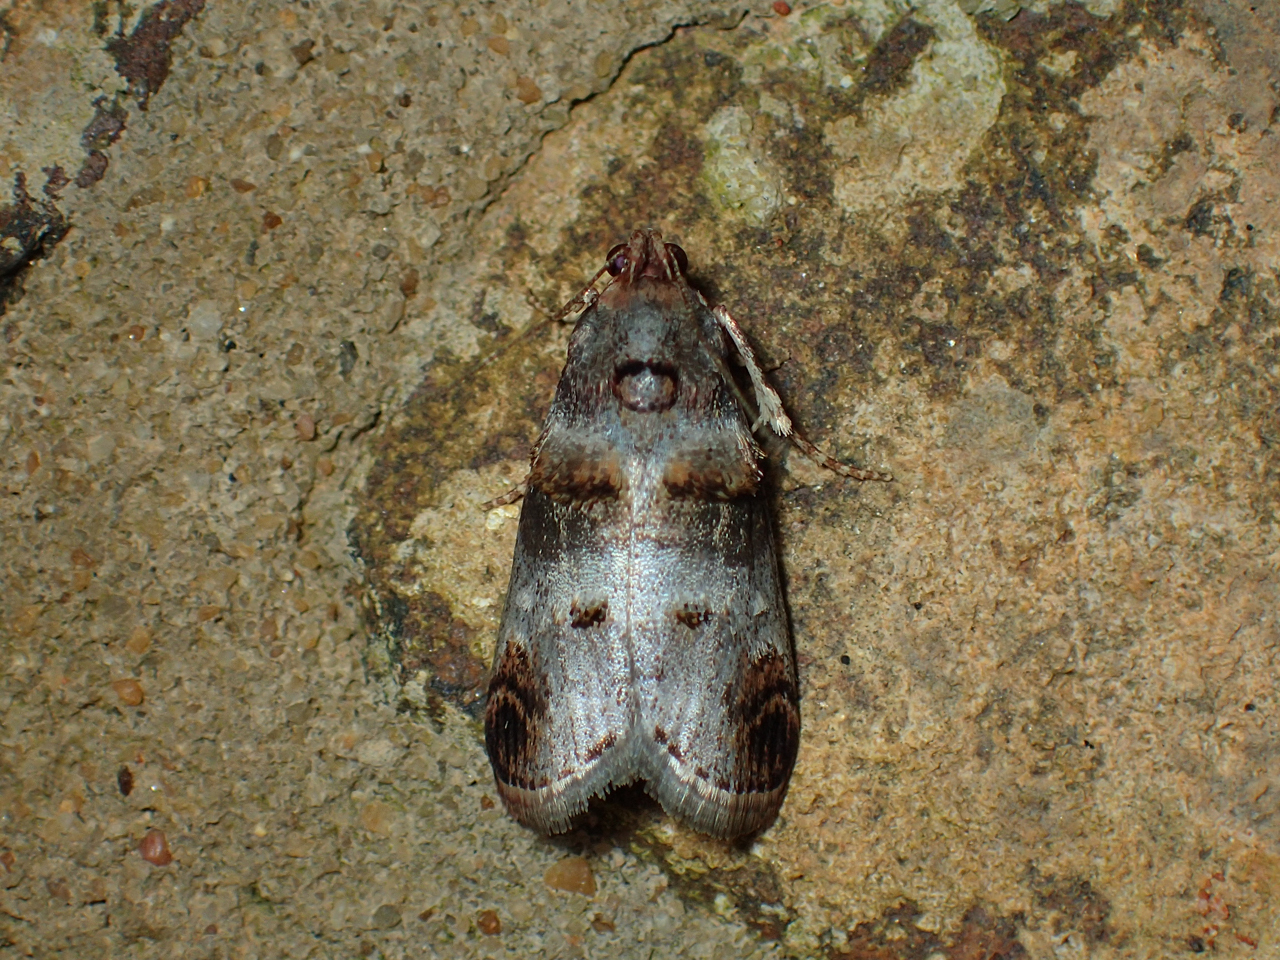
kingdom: Animalia
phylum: Arthropoda
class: Insecta
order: Lepidoptera
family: Pyralidae
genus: Oneida
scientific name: Oneida lunulalis
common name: Orange-tufted oneida moth
